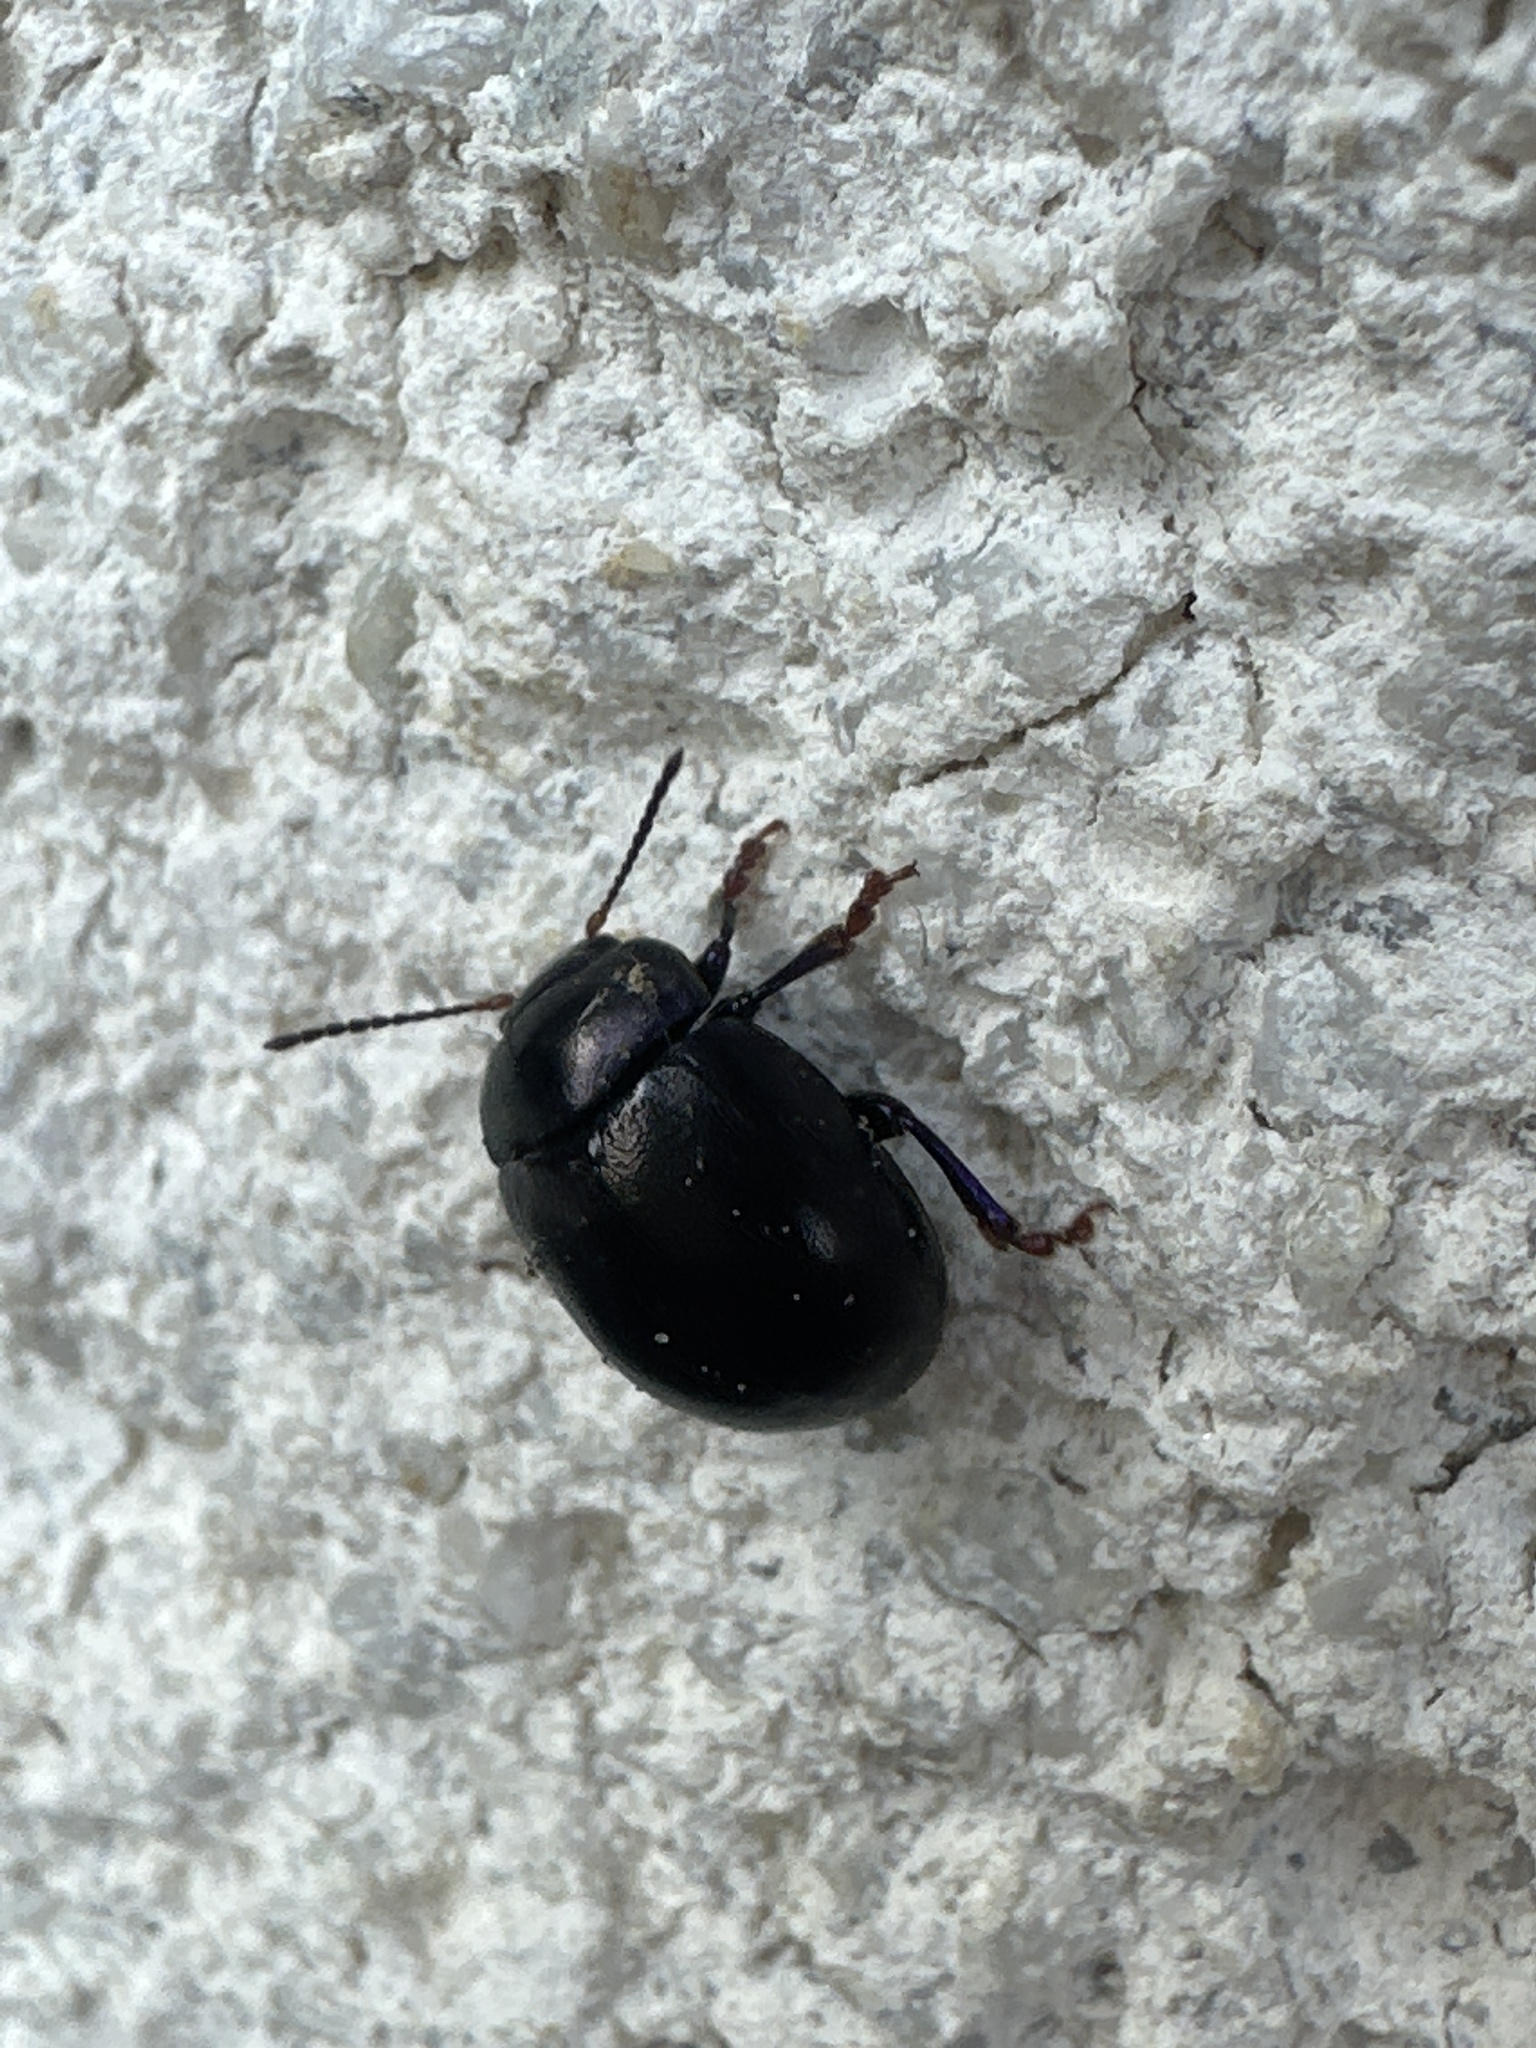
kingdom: Animalia
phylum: Arthropoda
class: Insecta
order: Coleoptera
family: Chrysomelidae
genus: Chrysolina
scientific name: Chrysolina sturmi
